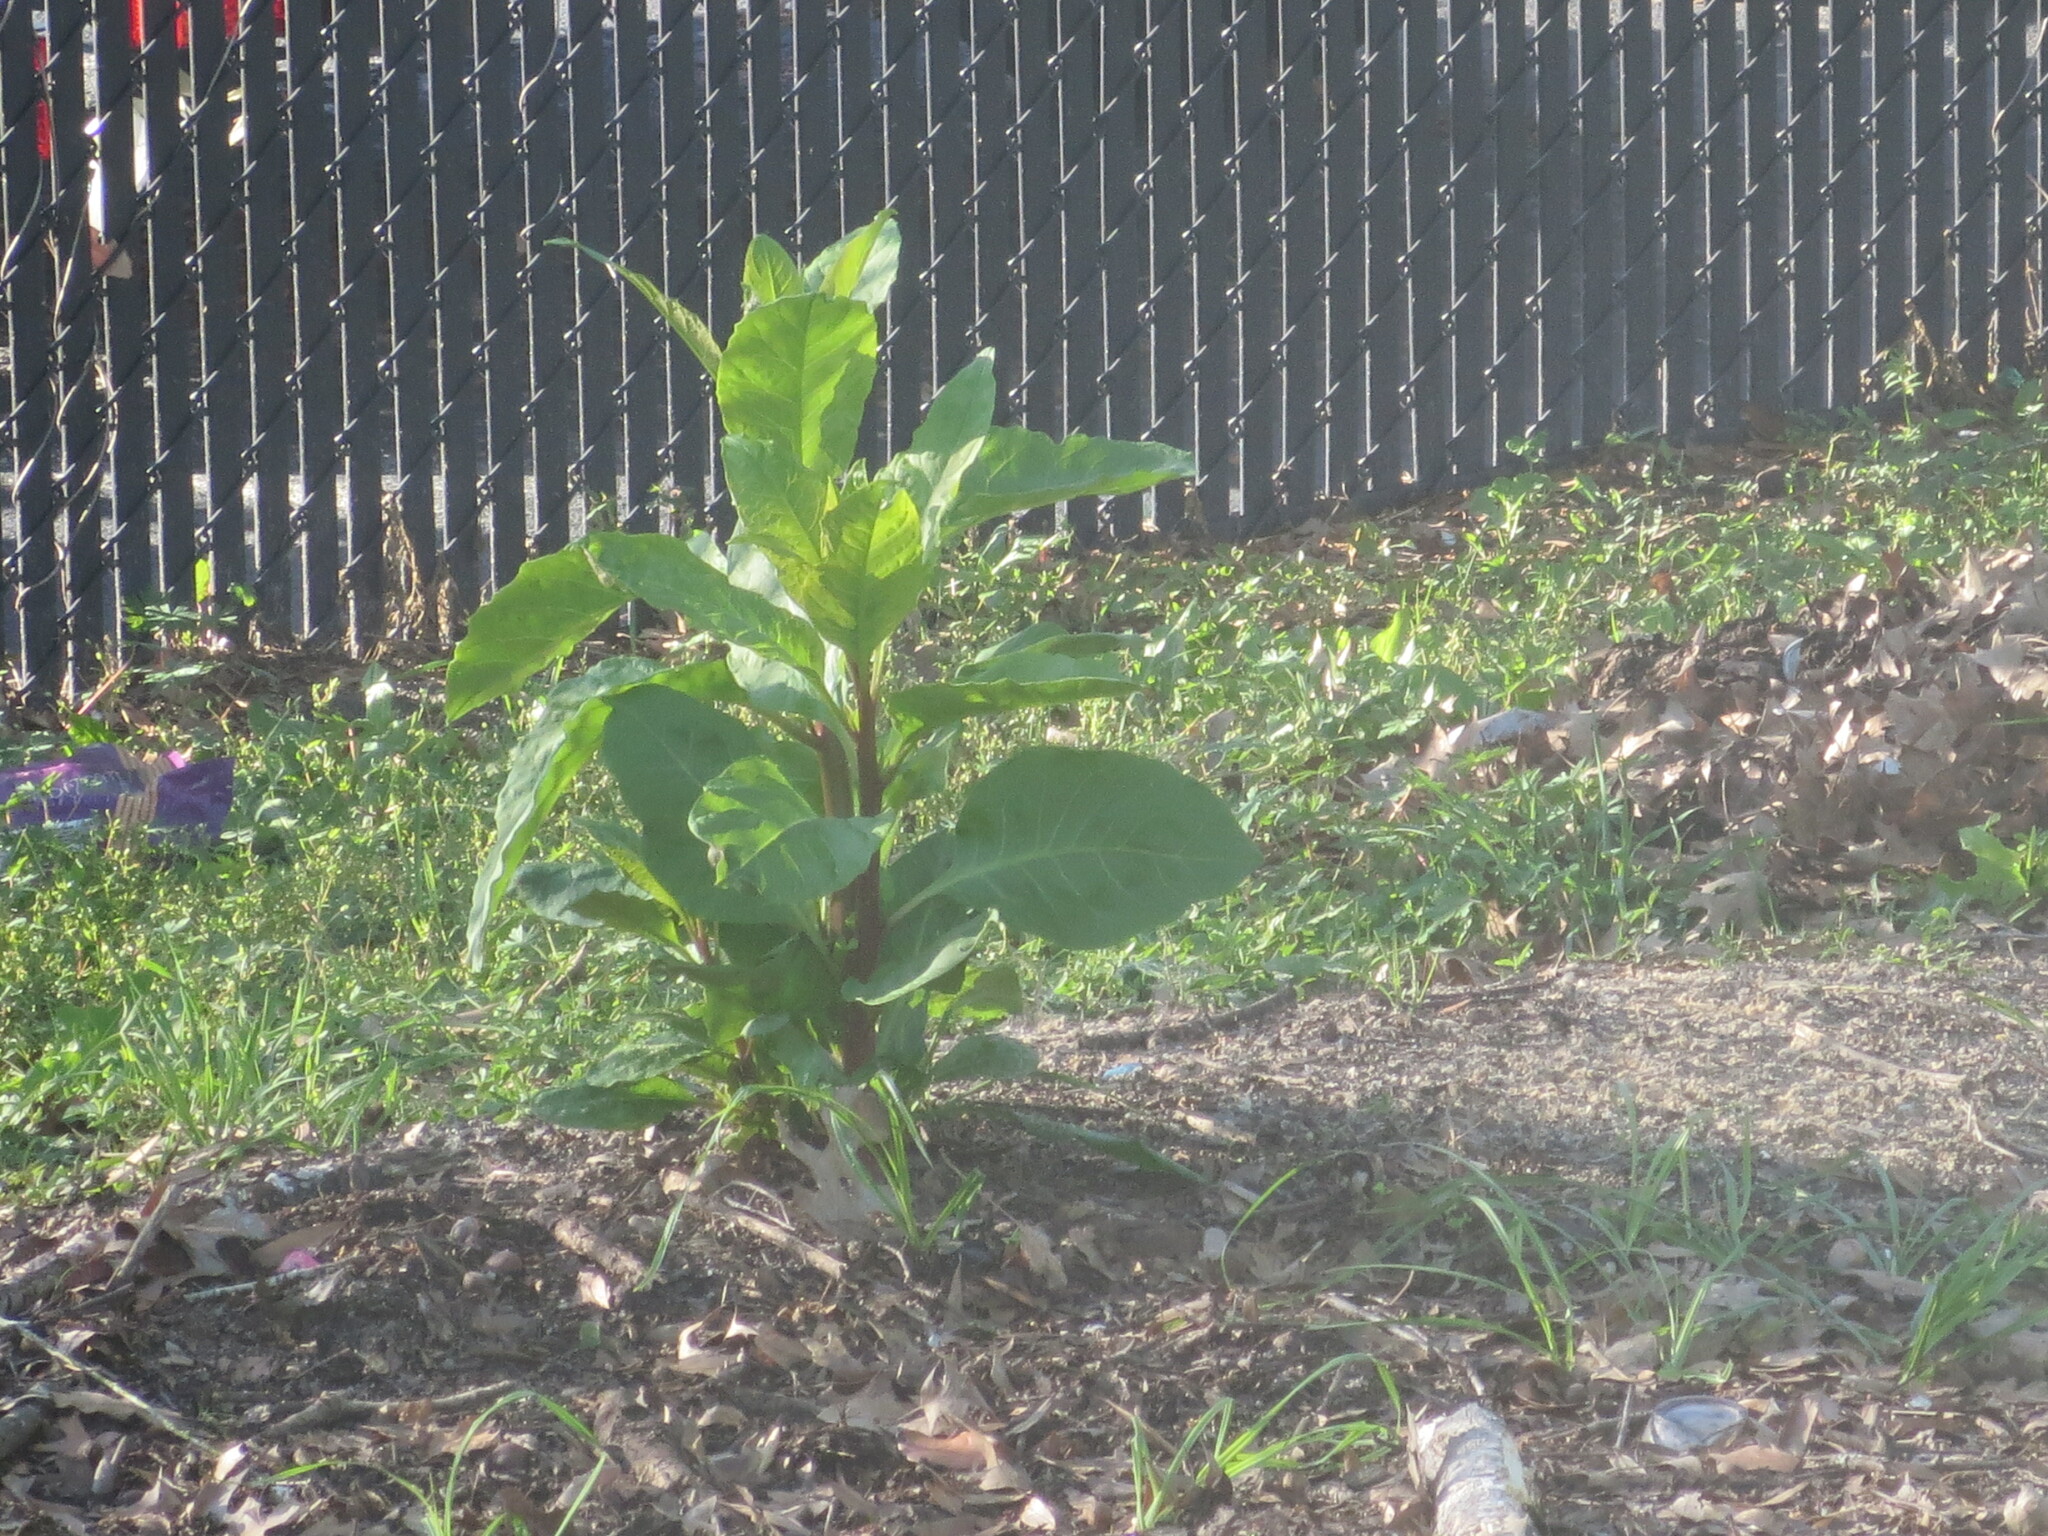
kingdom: Plantae
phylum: Tracheophyta
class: Magnoliopsida
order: Caryophyllales
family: Phytolaccaceae
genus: Phytolacca
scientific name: Phytolacca americana
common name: American pokeweed
